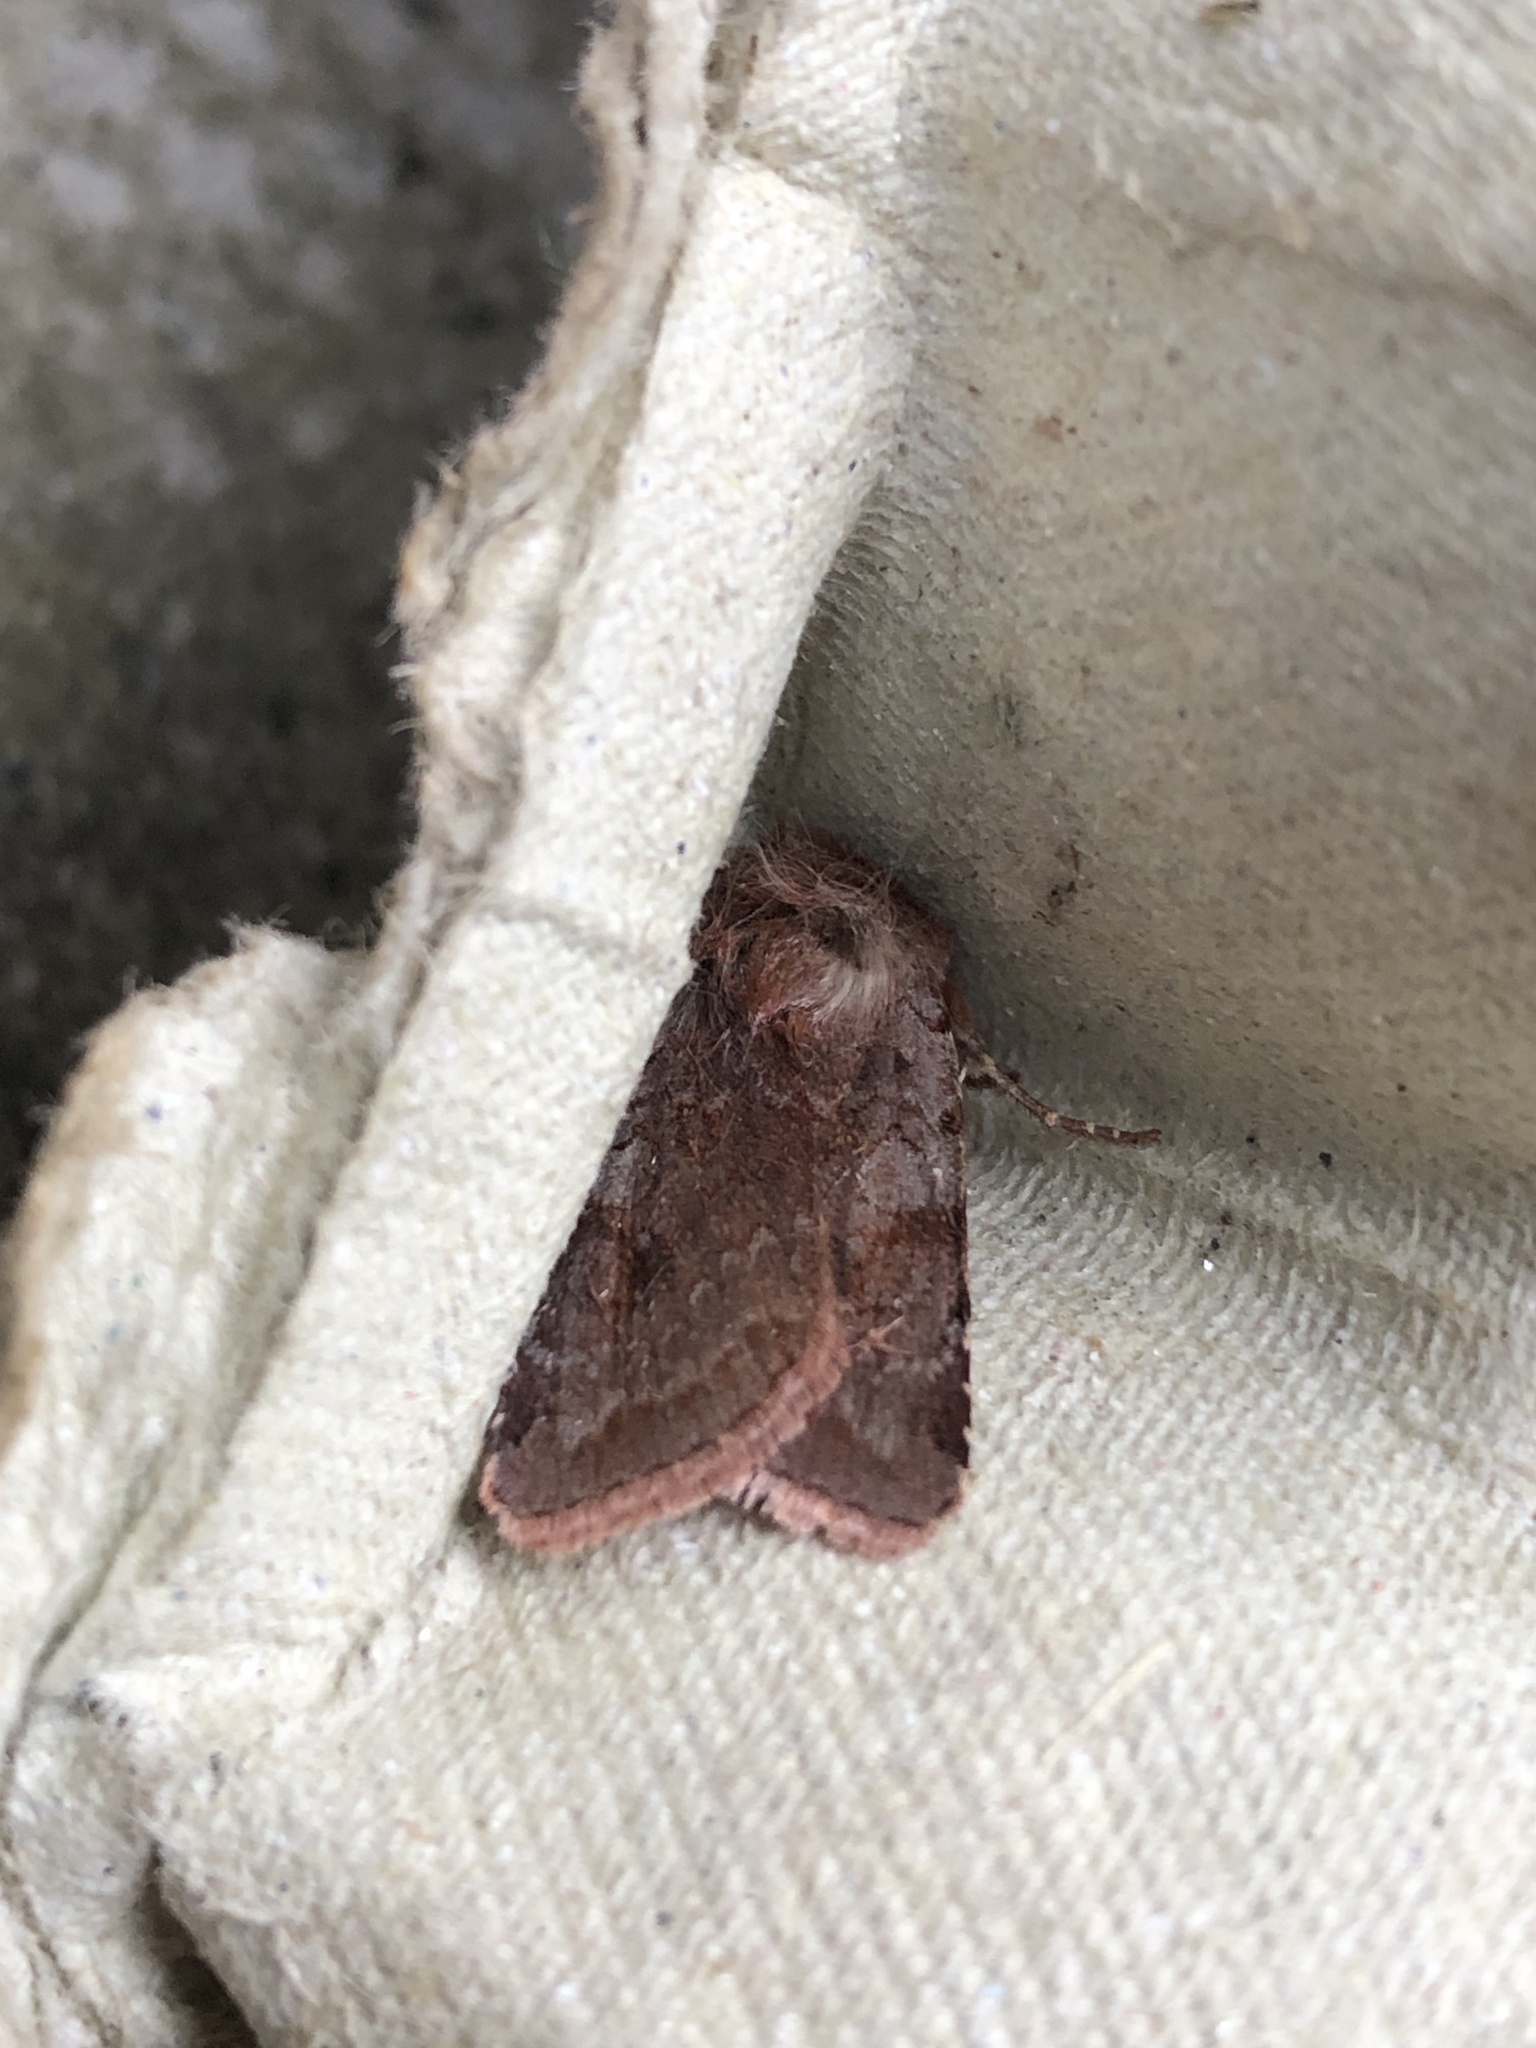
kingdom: Animalia
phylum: Arthropoda
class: Insecta
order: Lepidoptera
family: Noctuidae
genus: Cerastis
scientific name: Cerastis rubricosa
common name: Red chestnut
